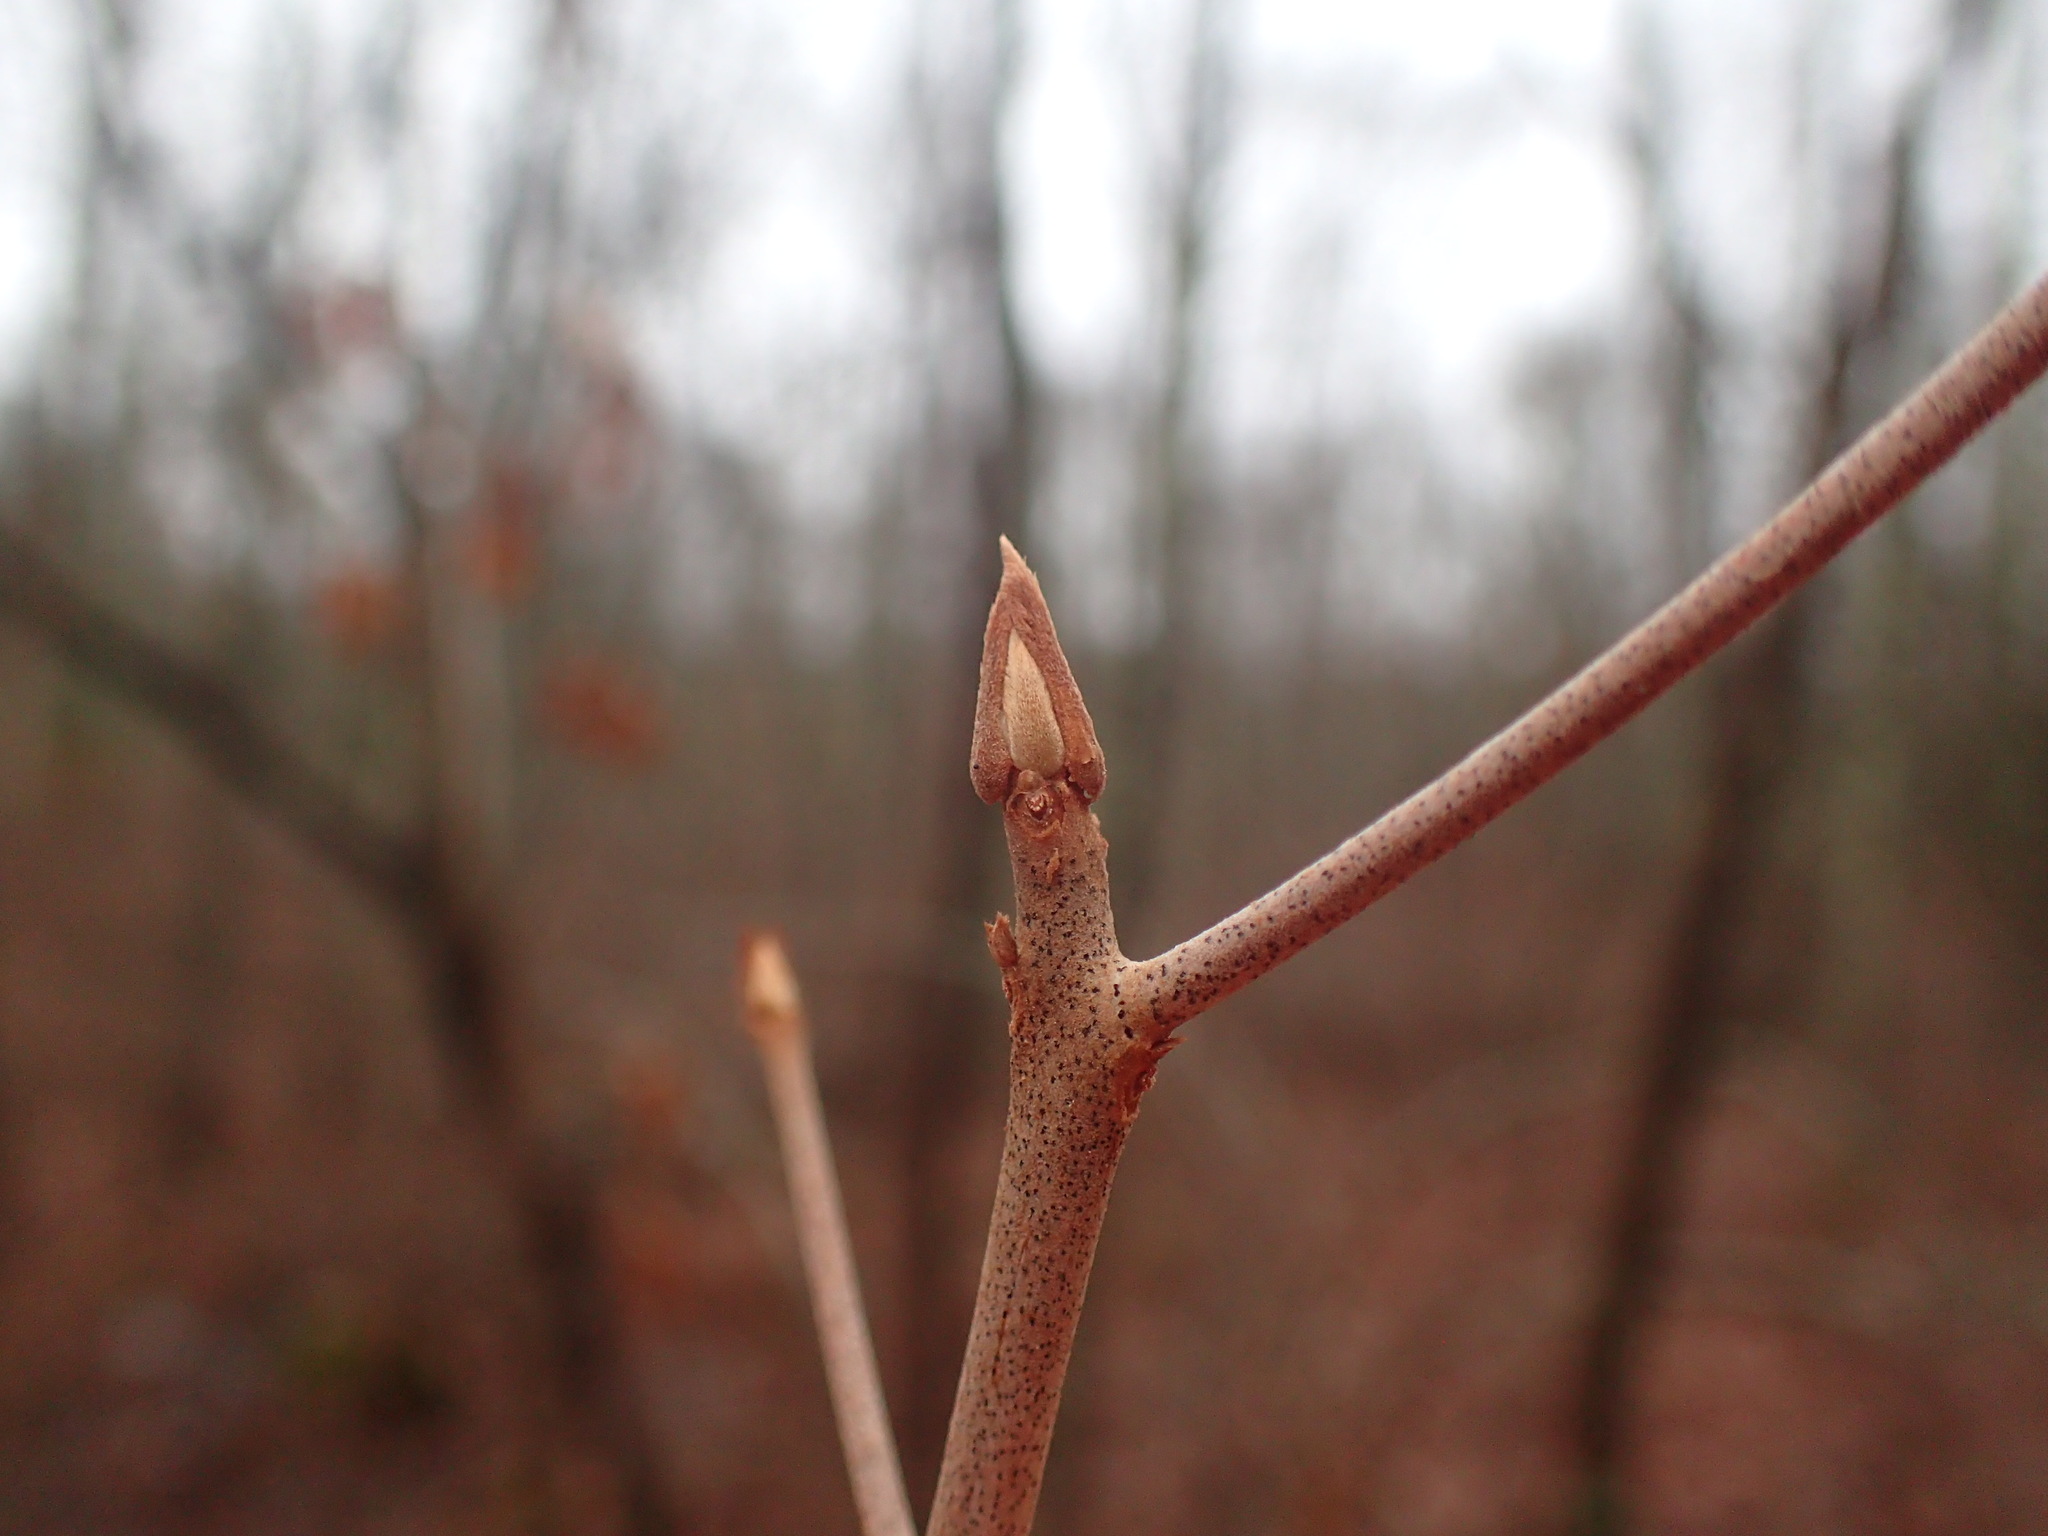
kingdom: Plantae
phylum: Tracheophyta
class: Magnoliopsida
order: Ericales
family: Clethraceae
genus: Clethra
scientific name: Clethra alnifolia
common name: Sweet pepperbush
